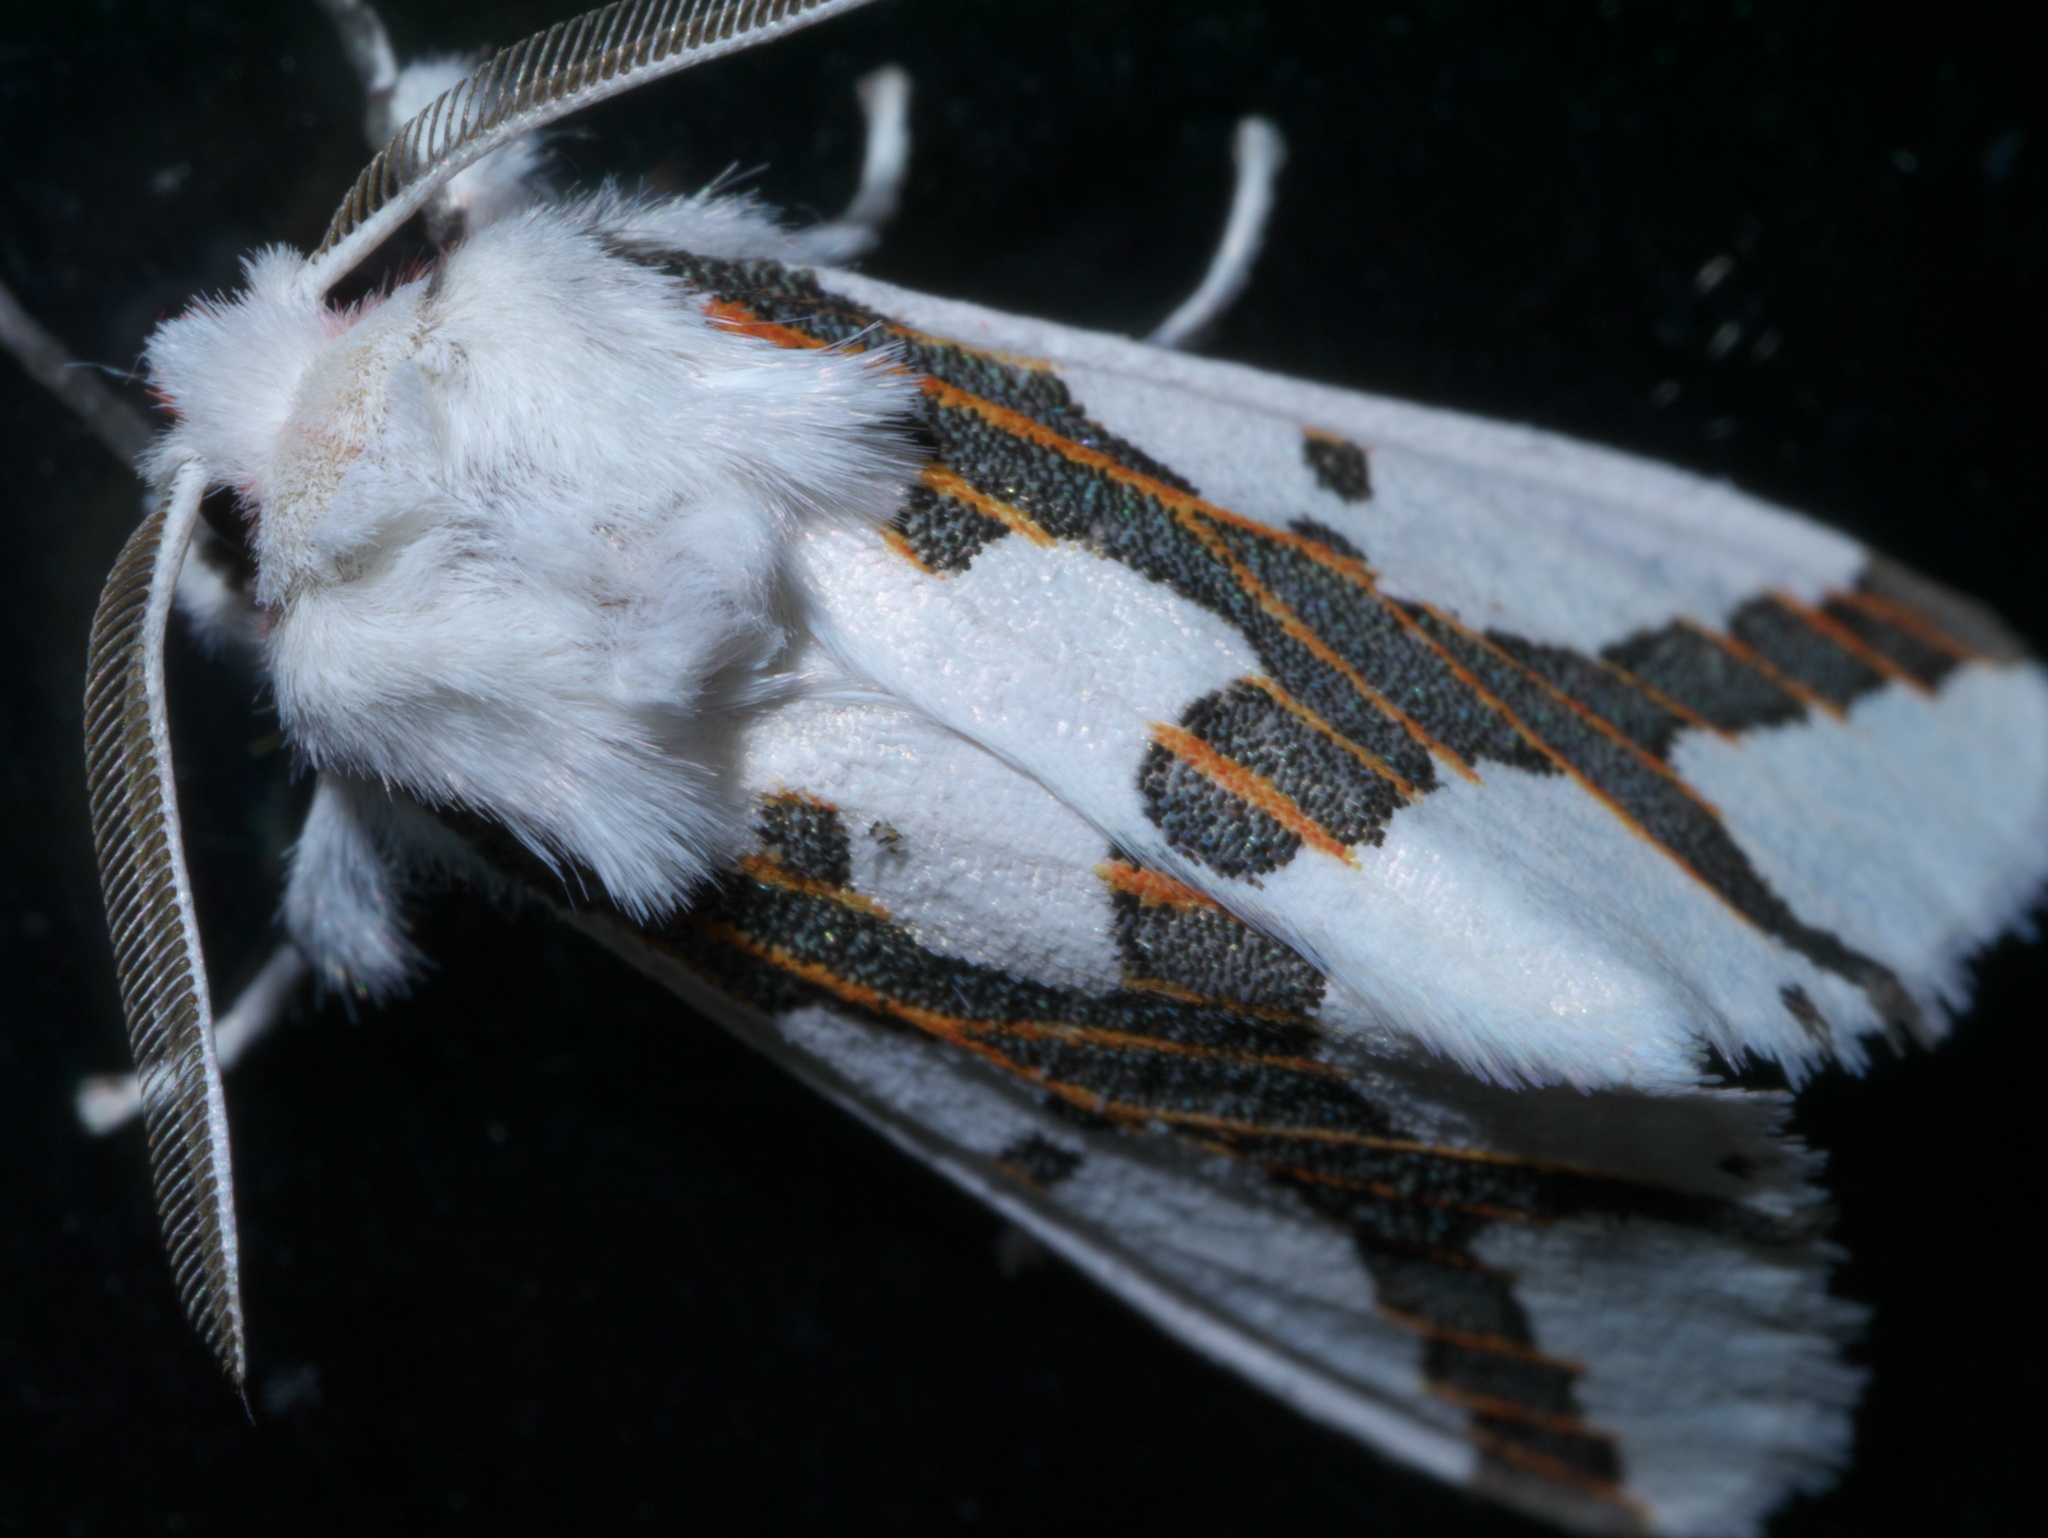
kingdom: Animalia
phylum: Arthropoda
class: Insecta
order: Lepidoptera
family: Erebidae
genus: Euerythra
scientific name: Euerythra phasma
